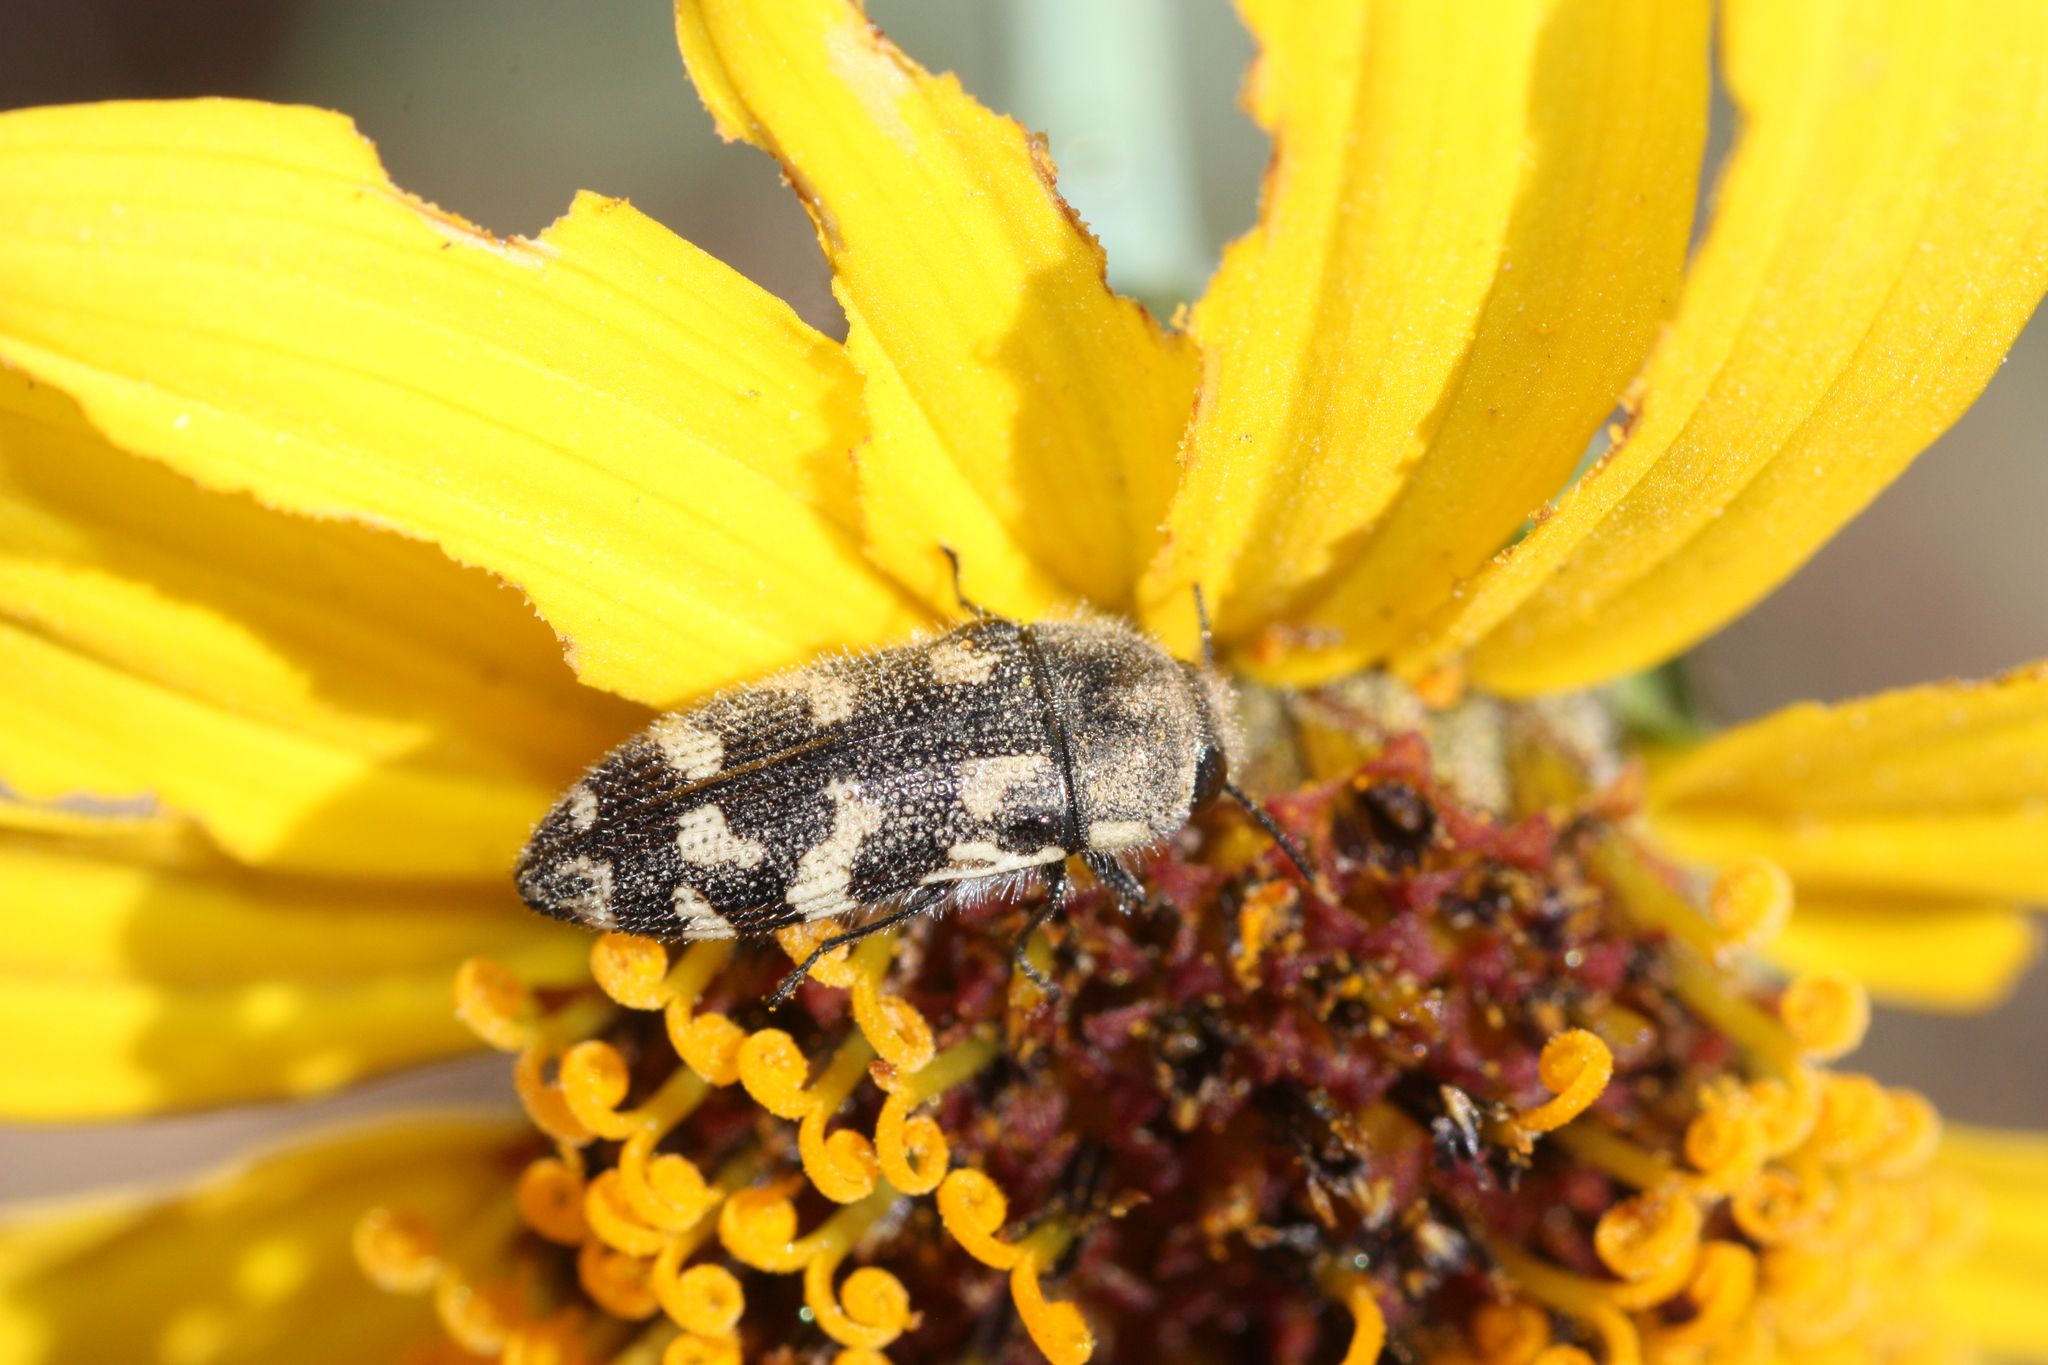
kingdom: Animalia
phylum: Arthropoda
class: Insecta
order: Coleoptera
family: Buprestidae
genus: Acmaeodera
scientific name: Acmaeodera mixta
